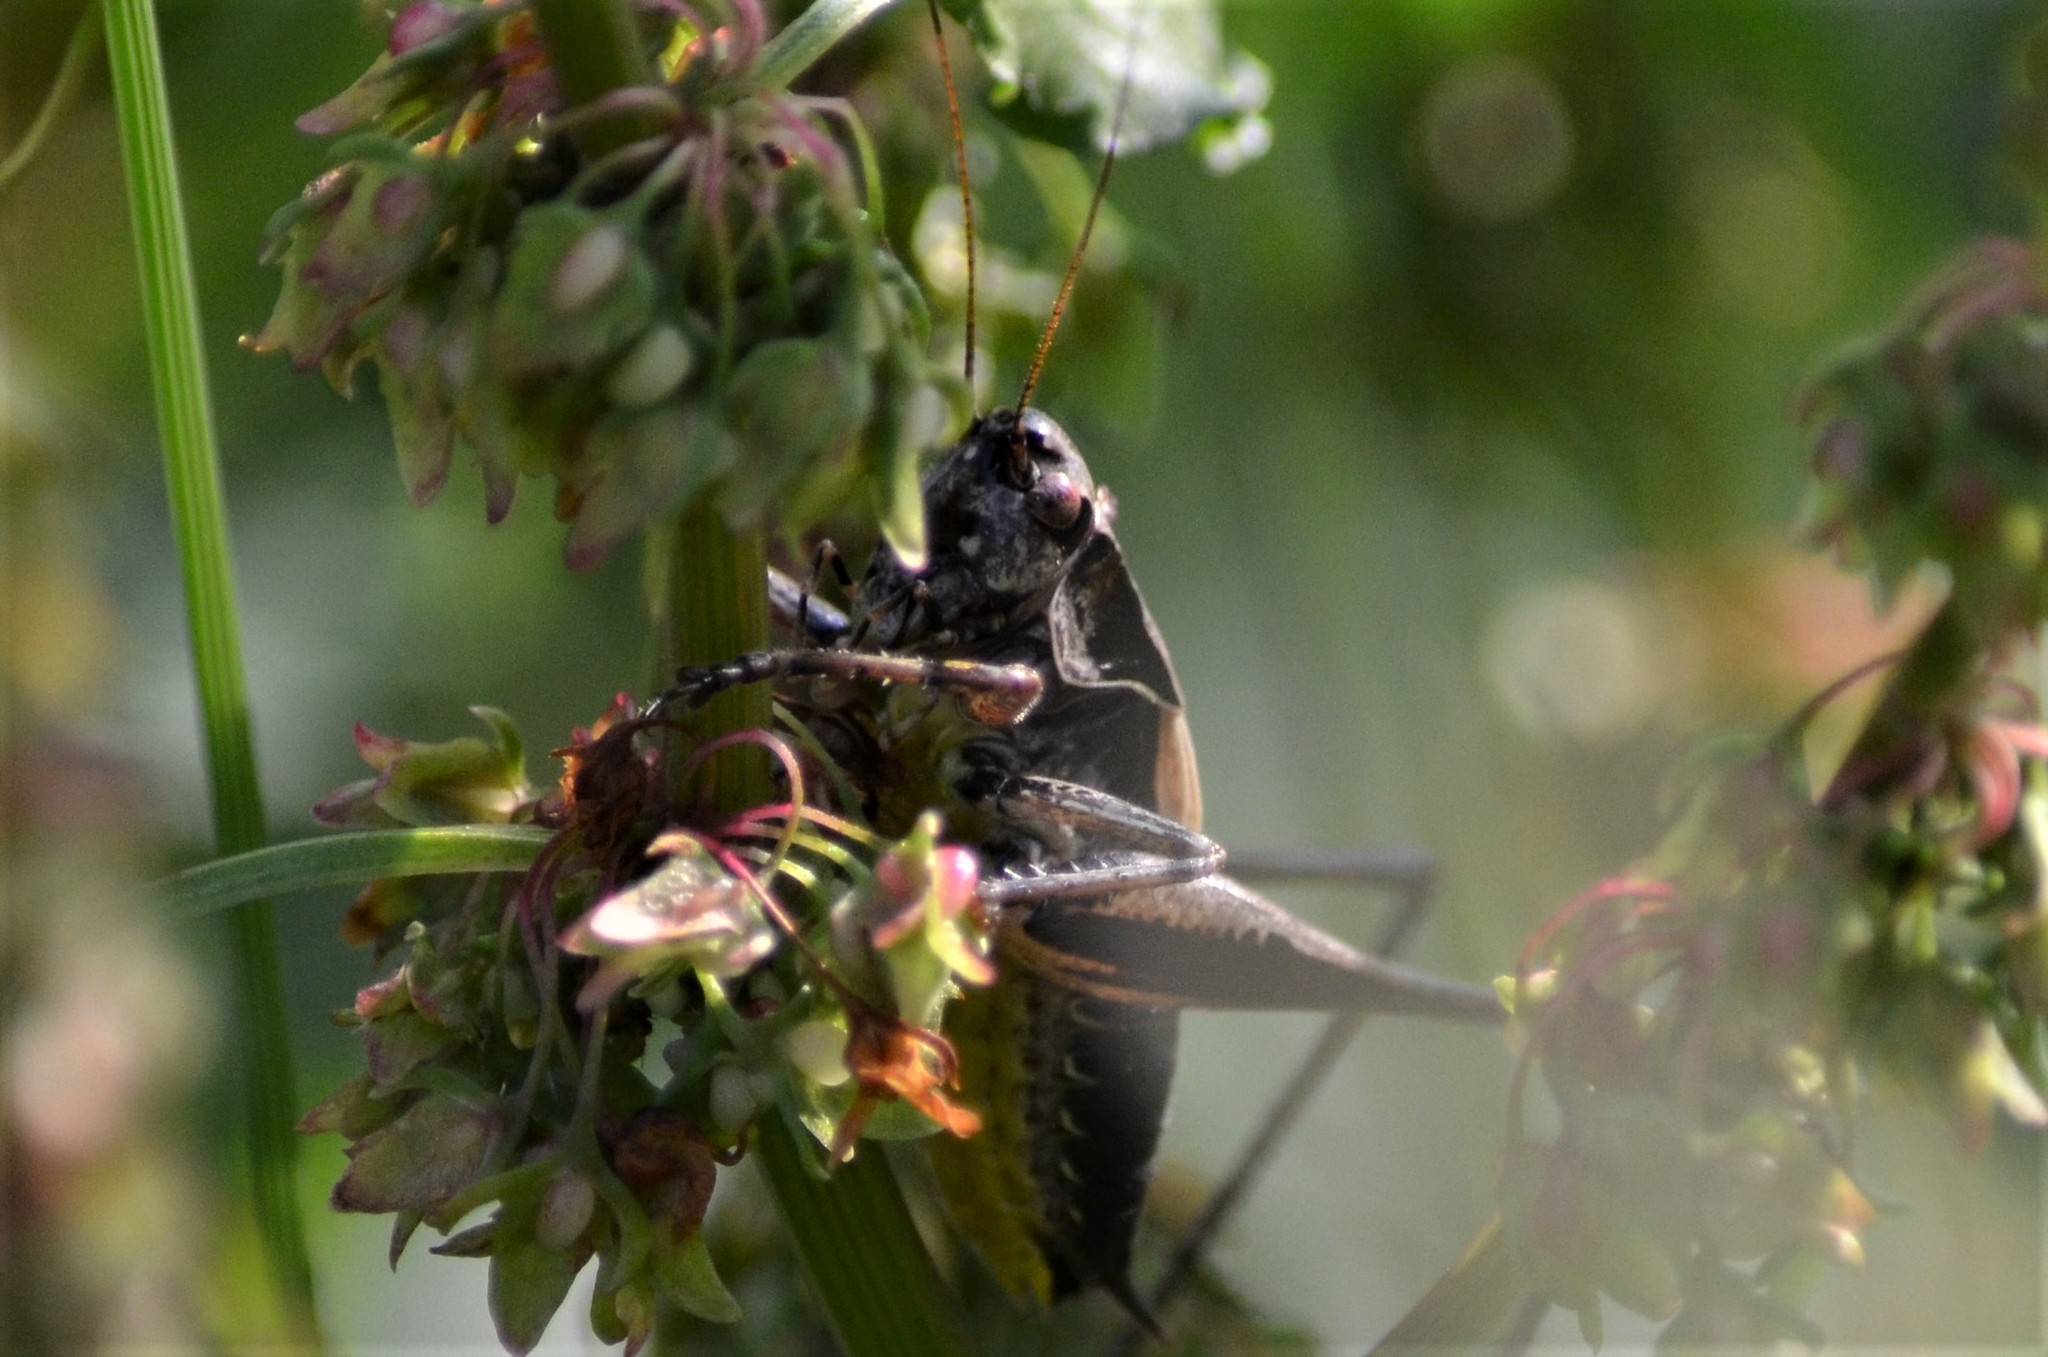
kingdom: Animalia
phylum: Arthropoda
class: Insecta
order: Orthoptera
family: Tettigoniidae
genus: Pholidoptera
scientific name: Pholidoptera griseoaptera
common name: Dark bush-cricket
